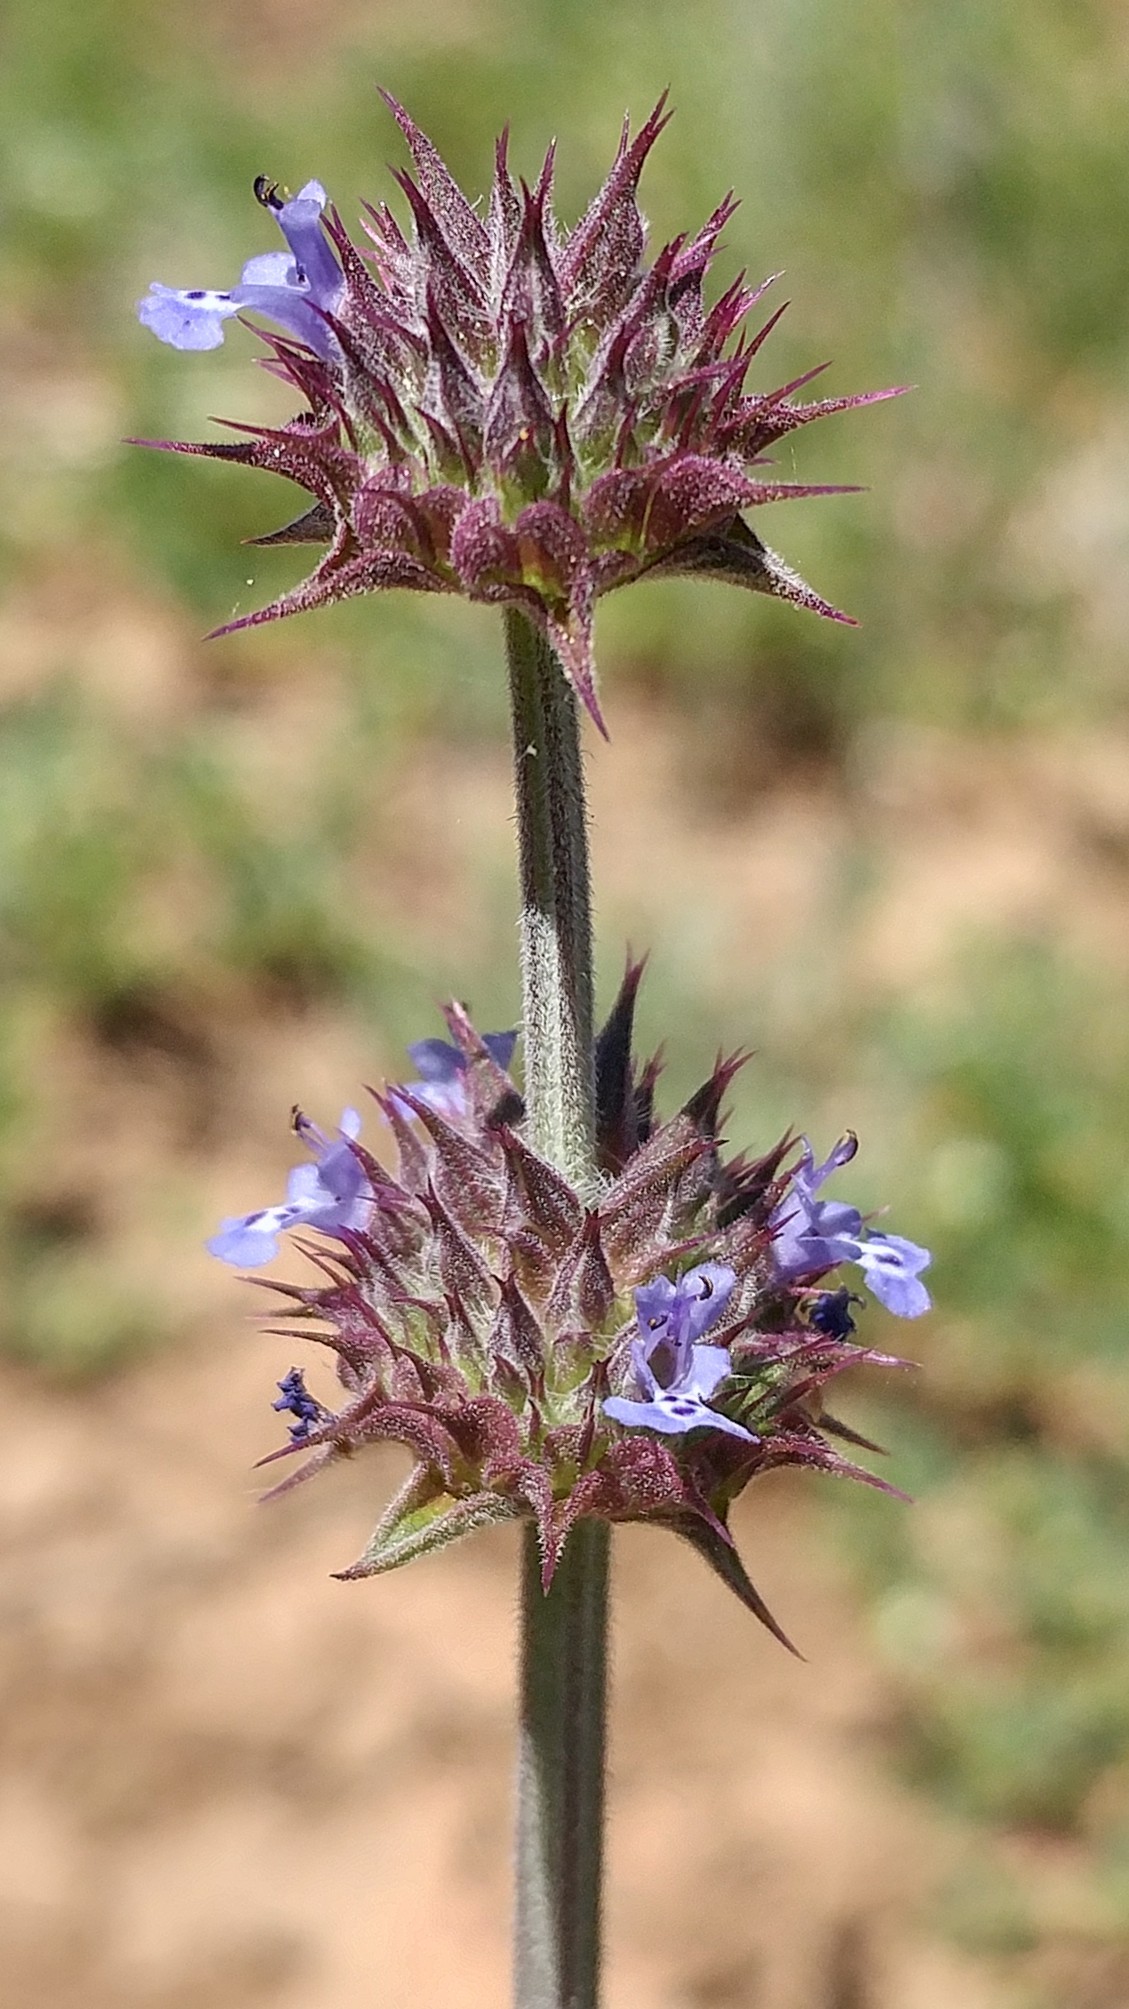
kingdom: Plantae
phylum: Tracheophyta
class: Magnoliopsida
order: Lamiales
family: Lamiaceae
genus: Salvia
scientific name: Salvia columbariae
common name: Chia
